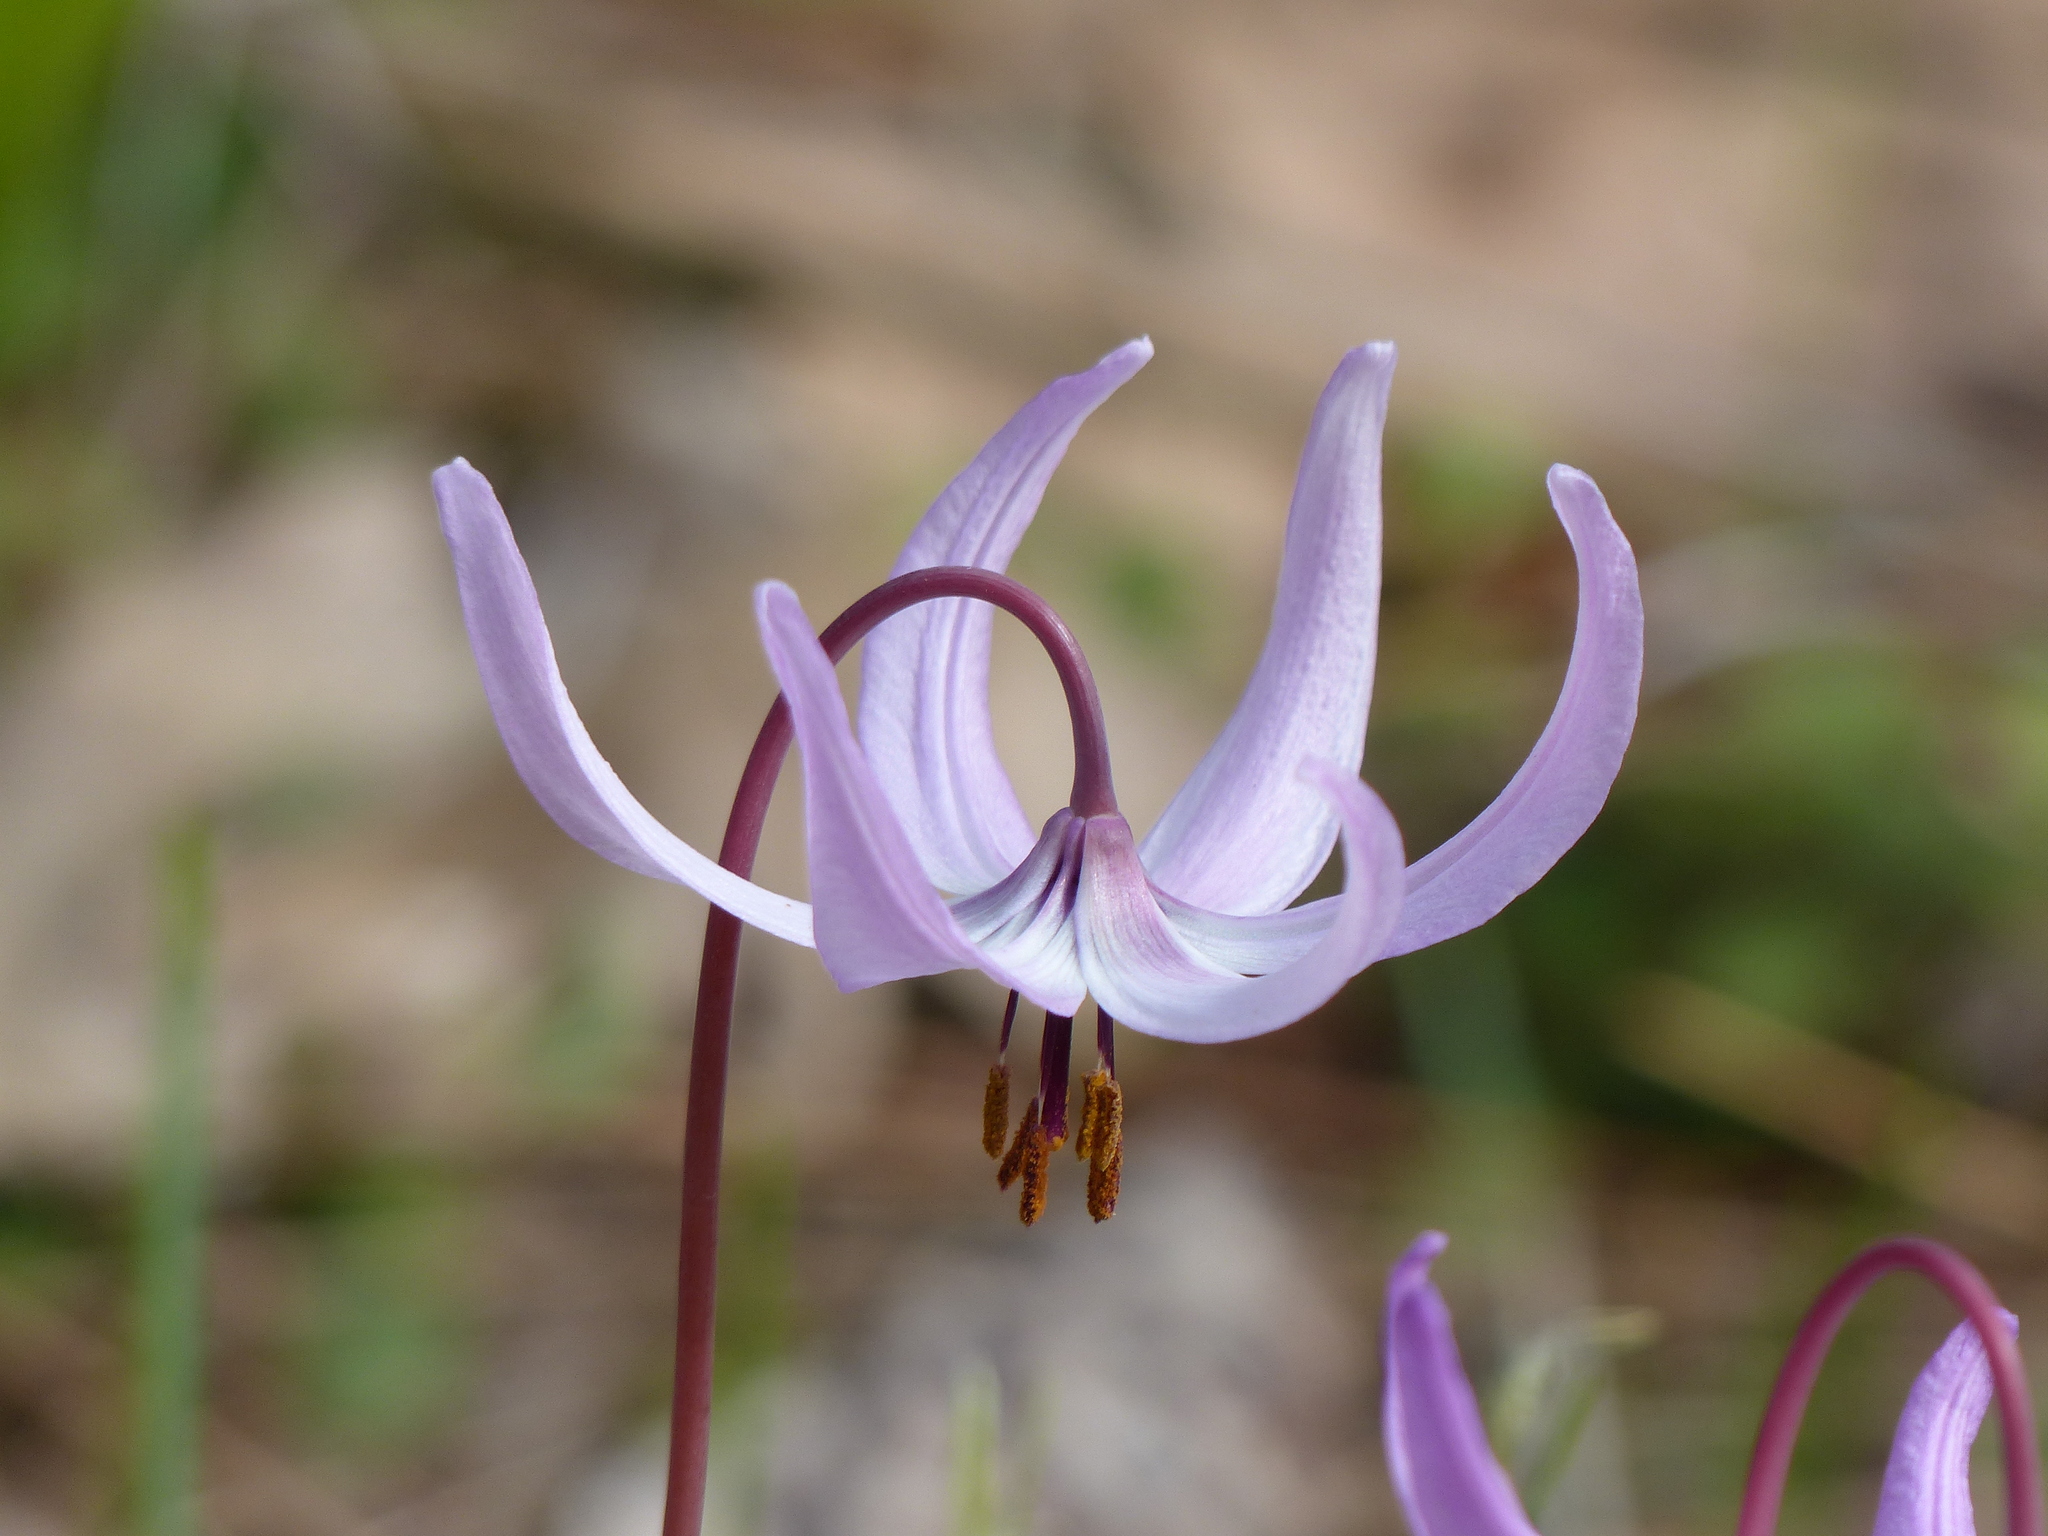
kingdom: Plantae
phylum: Tracheophyta
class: Liliopsida
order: Liliales
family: Liliaceae
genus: Erythronium
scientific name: Erythronium hendersonii
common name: Henderson's fawn-lily
